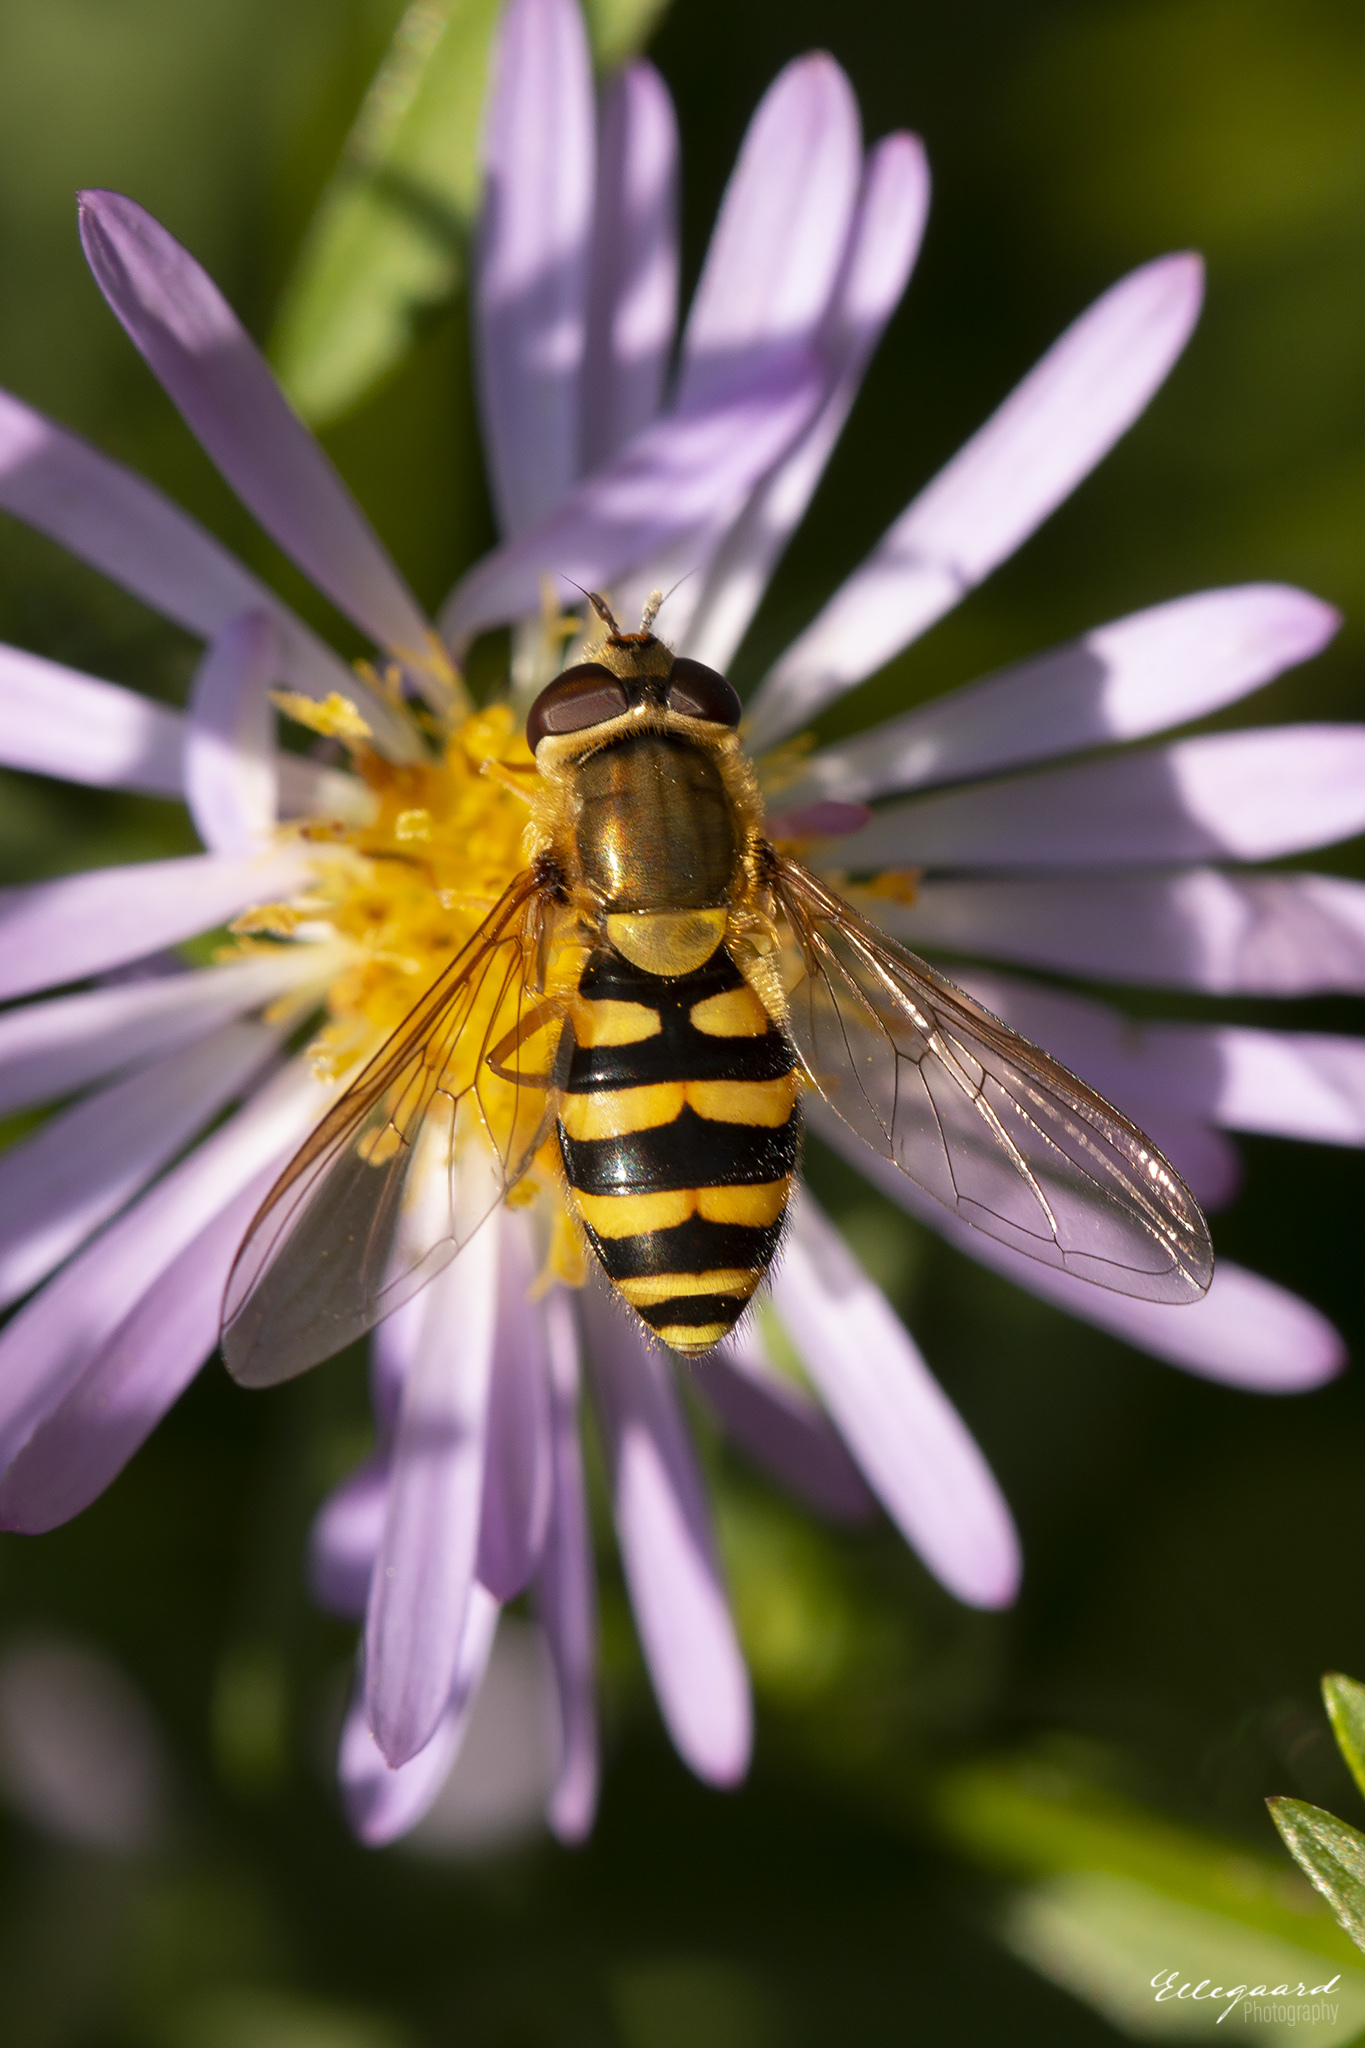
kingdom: Animalia
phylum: Arthropoda
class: Insecta
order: Diptera
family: Syrphidae
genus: Syrphus
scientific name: Syrphus ribesii
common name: Common flower fly
